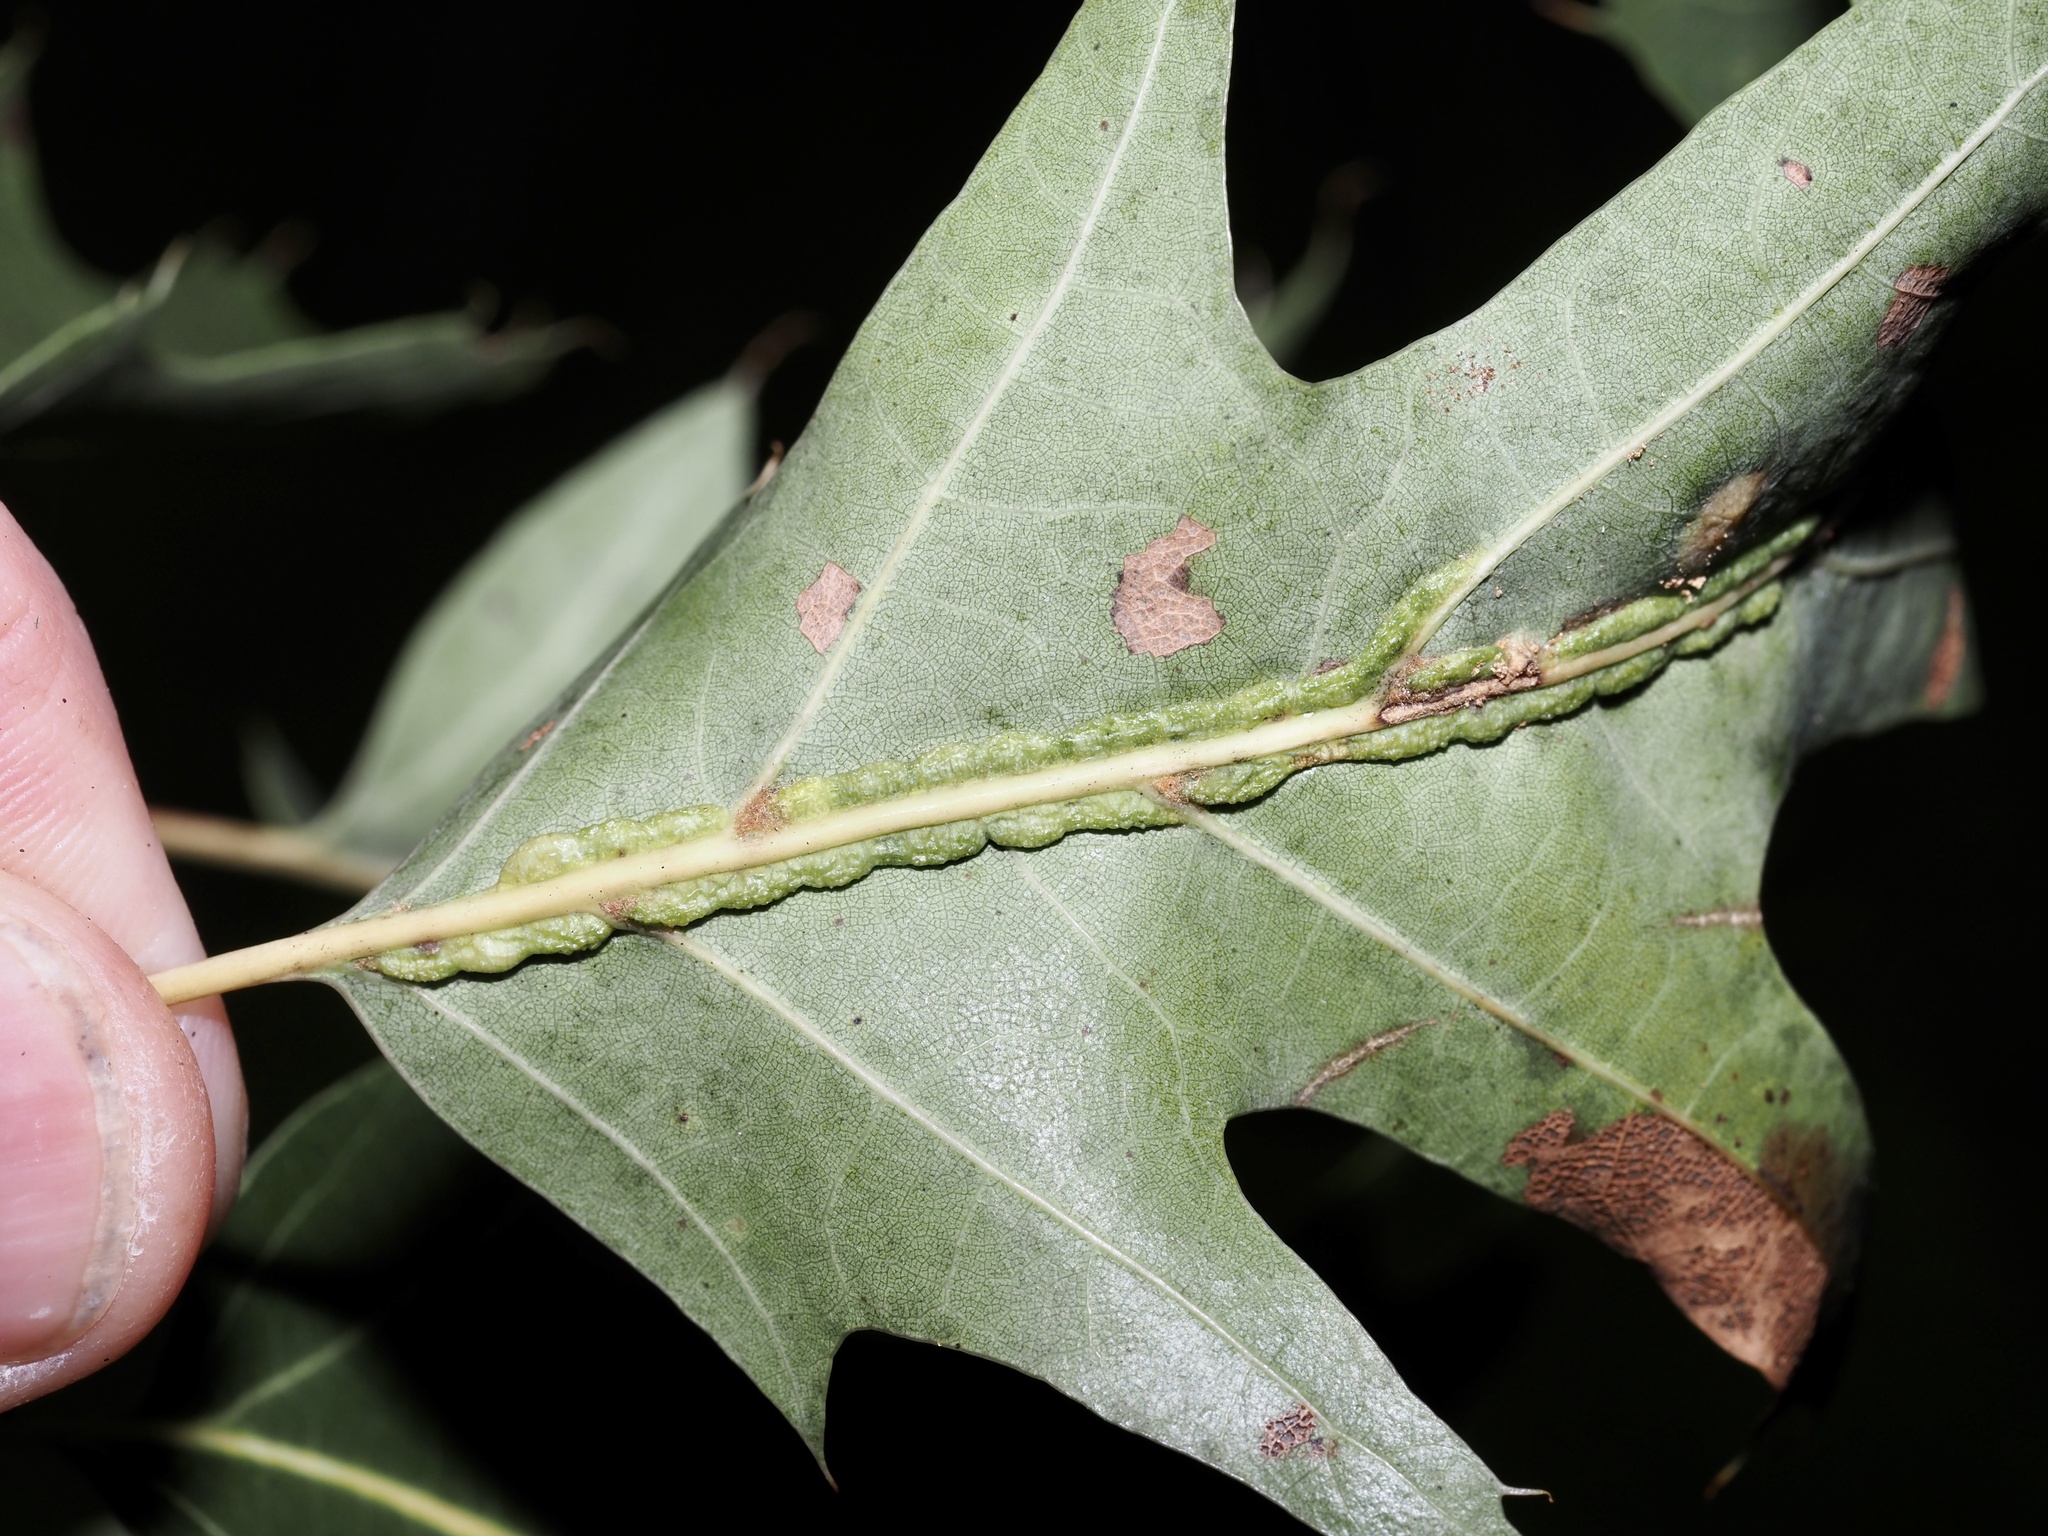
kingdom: Animalia
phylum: Arthropoda
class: Insecta
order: Diptera
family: Cecidomyiidae
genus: Macrodiplosis
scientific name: Macrodiplosis q-orucum
